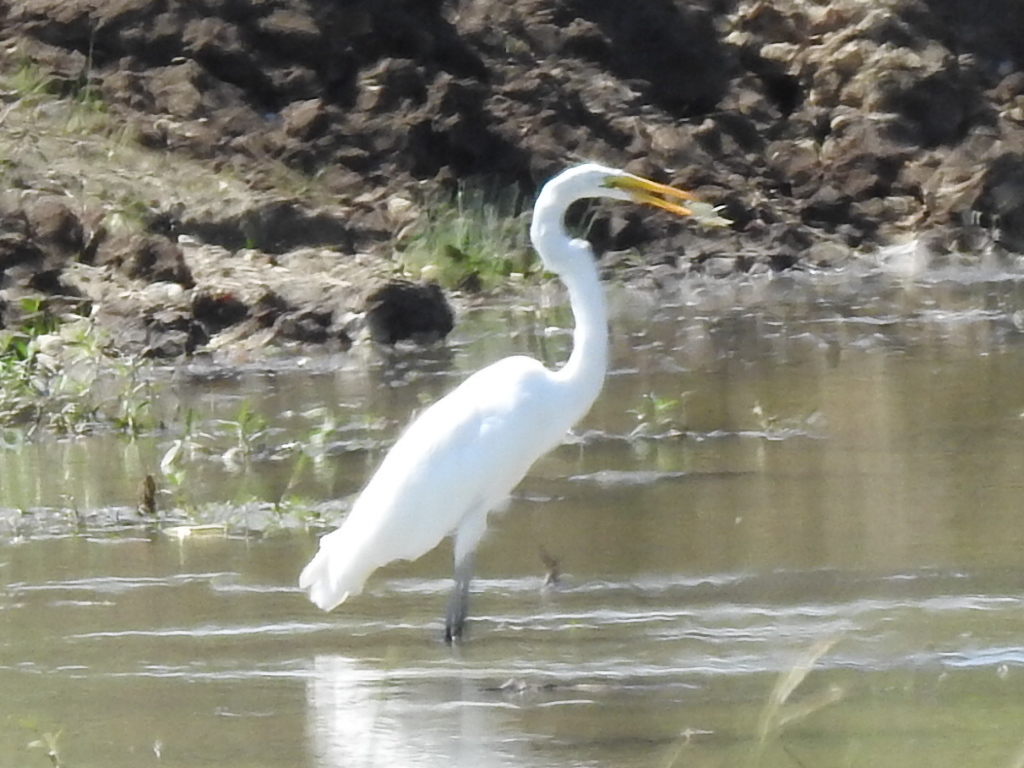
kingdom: Animalia
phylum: Chordata
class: Aves
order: Pelecaniformes
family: Ardeidae
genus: Ardea
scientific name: Ardea alba
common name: Great egret
